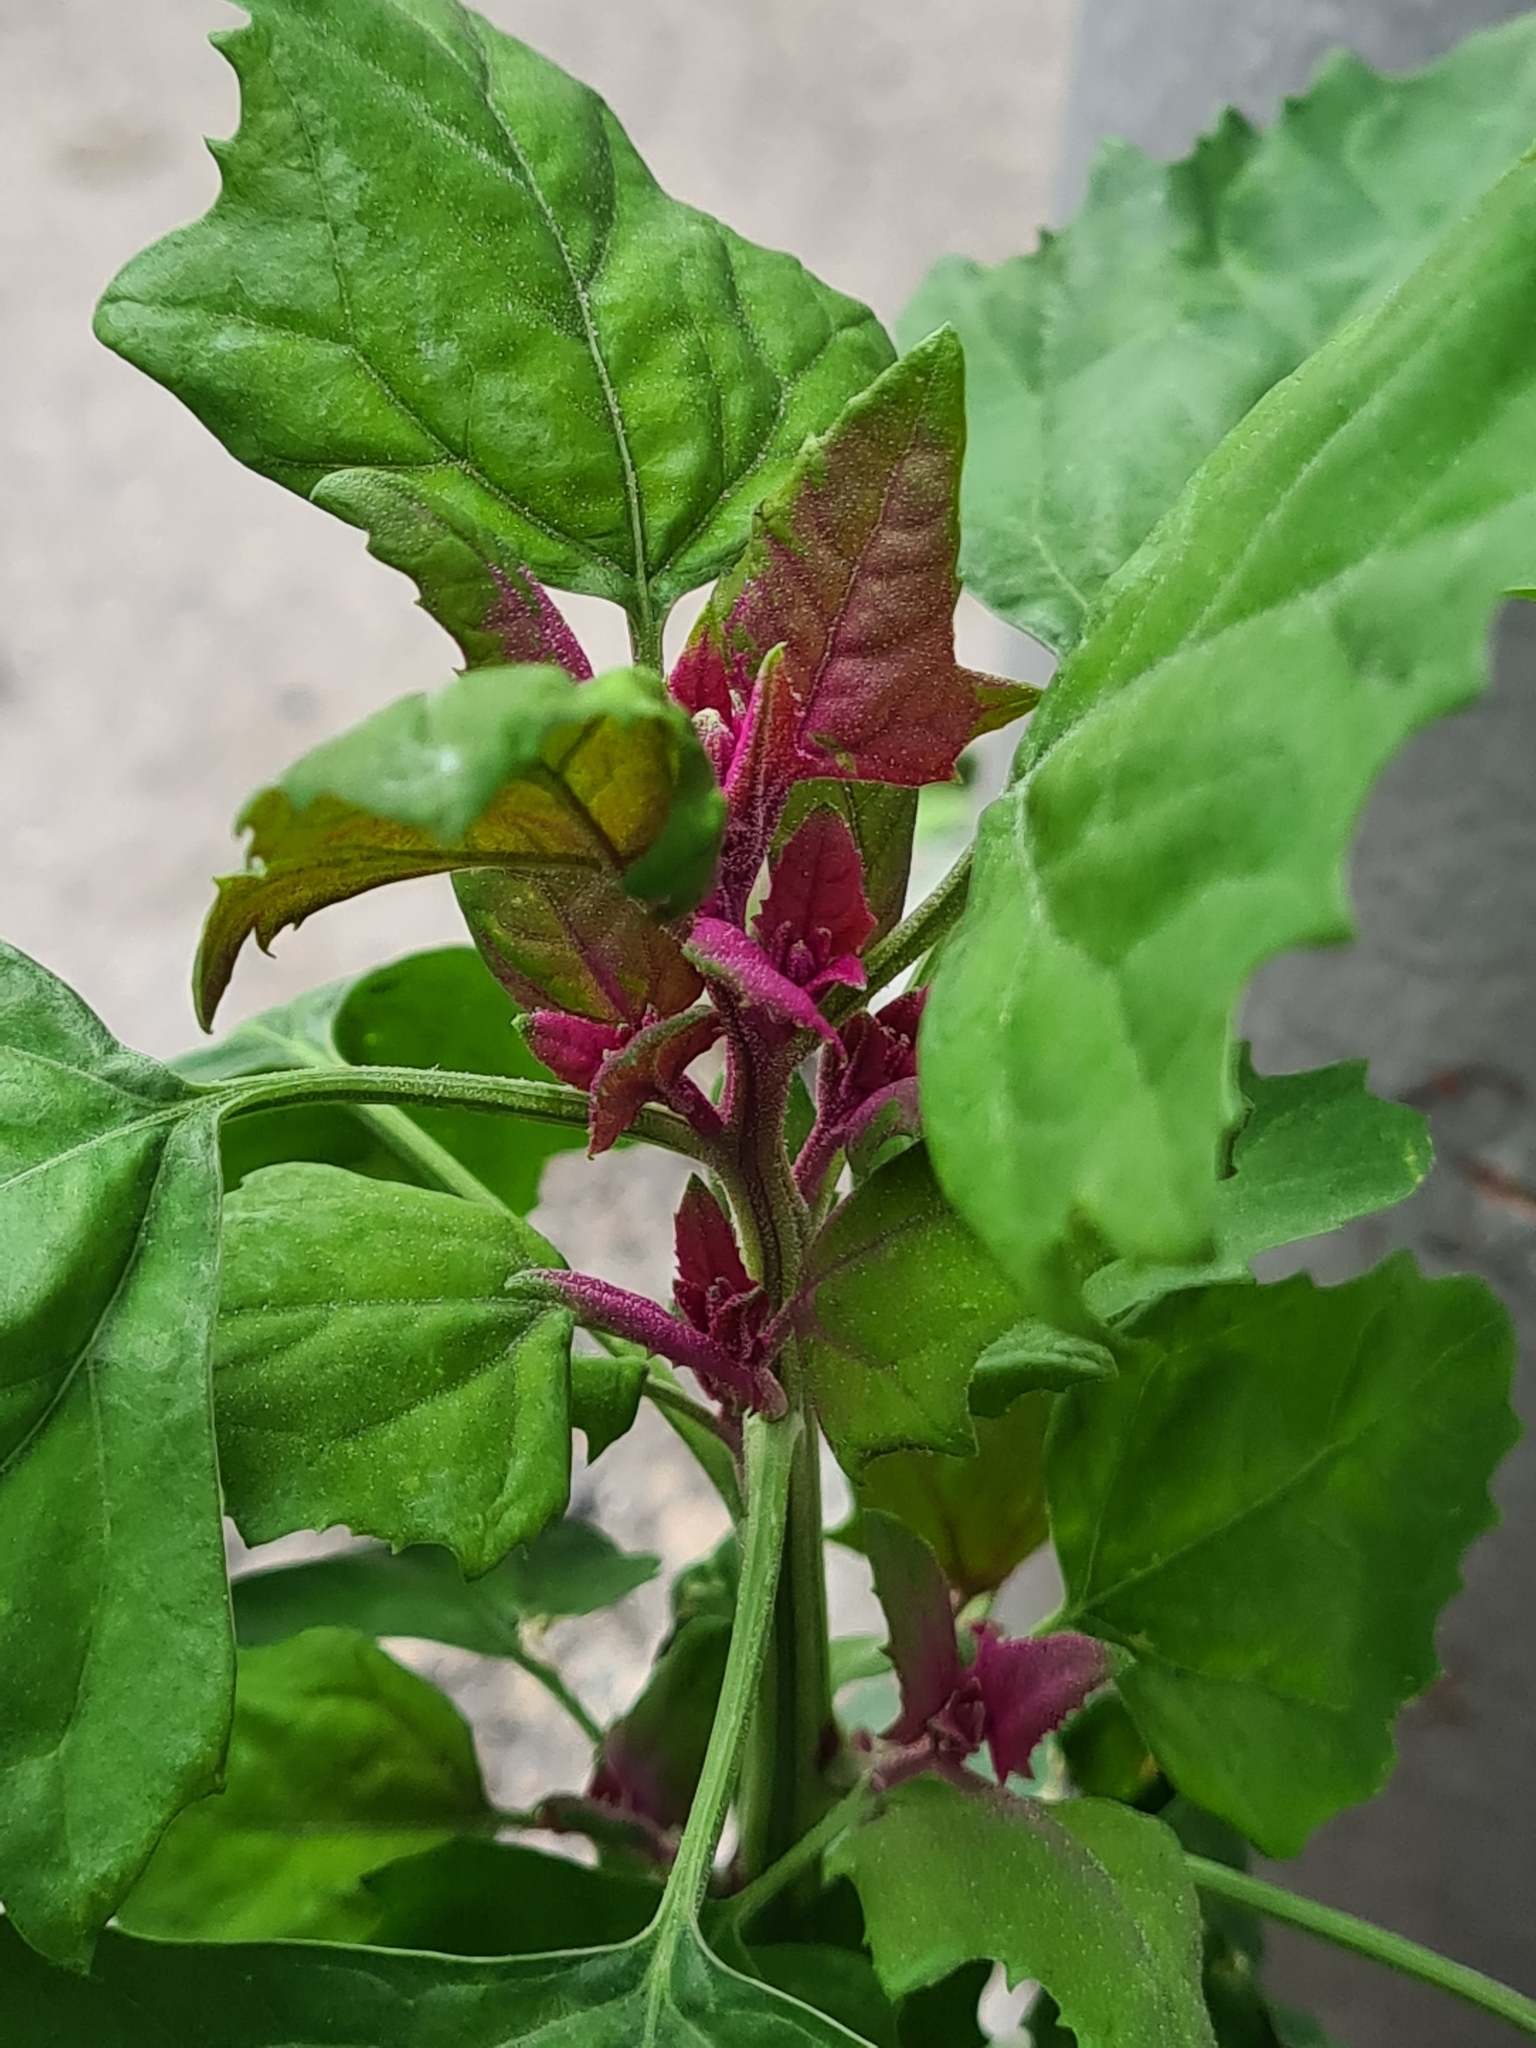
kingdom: Plantae
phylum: Tracheophyta
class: Magnoliopsida
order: Caryophyllales
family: Amaranthaceae
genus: Chenopodium
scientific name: Chenopodium giganteum
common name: Magentaspreen
